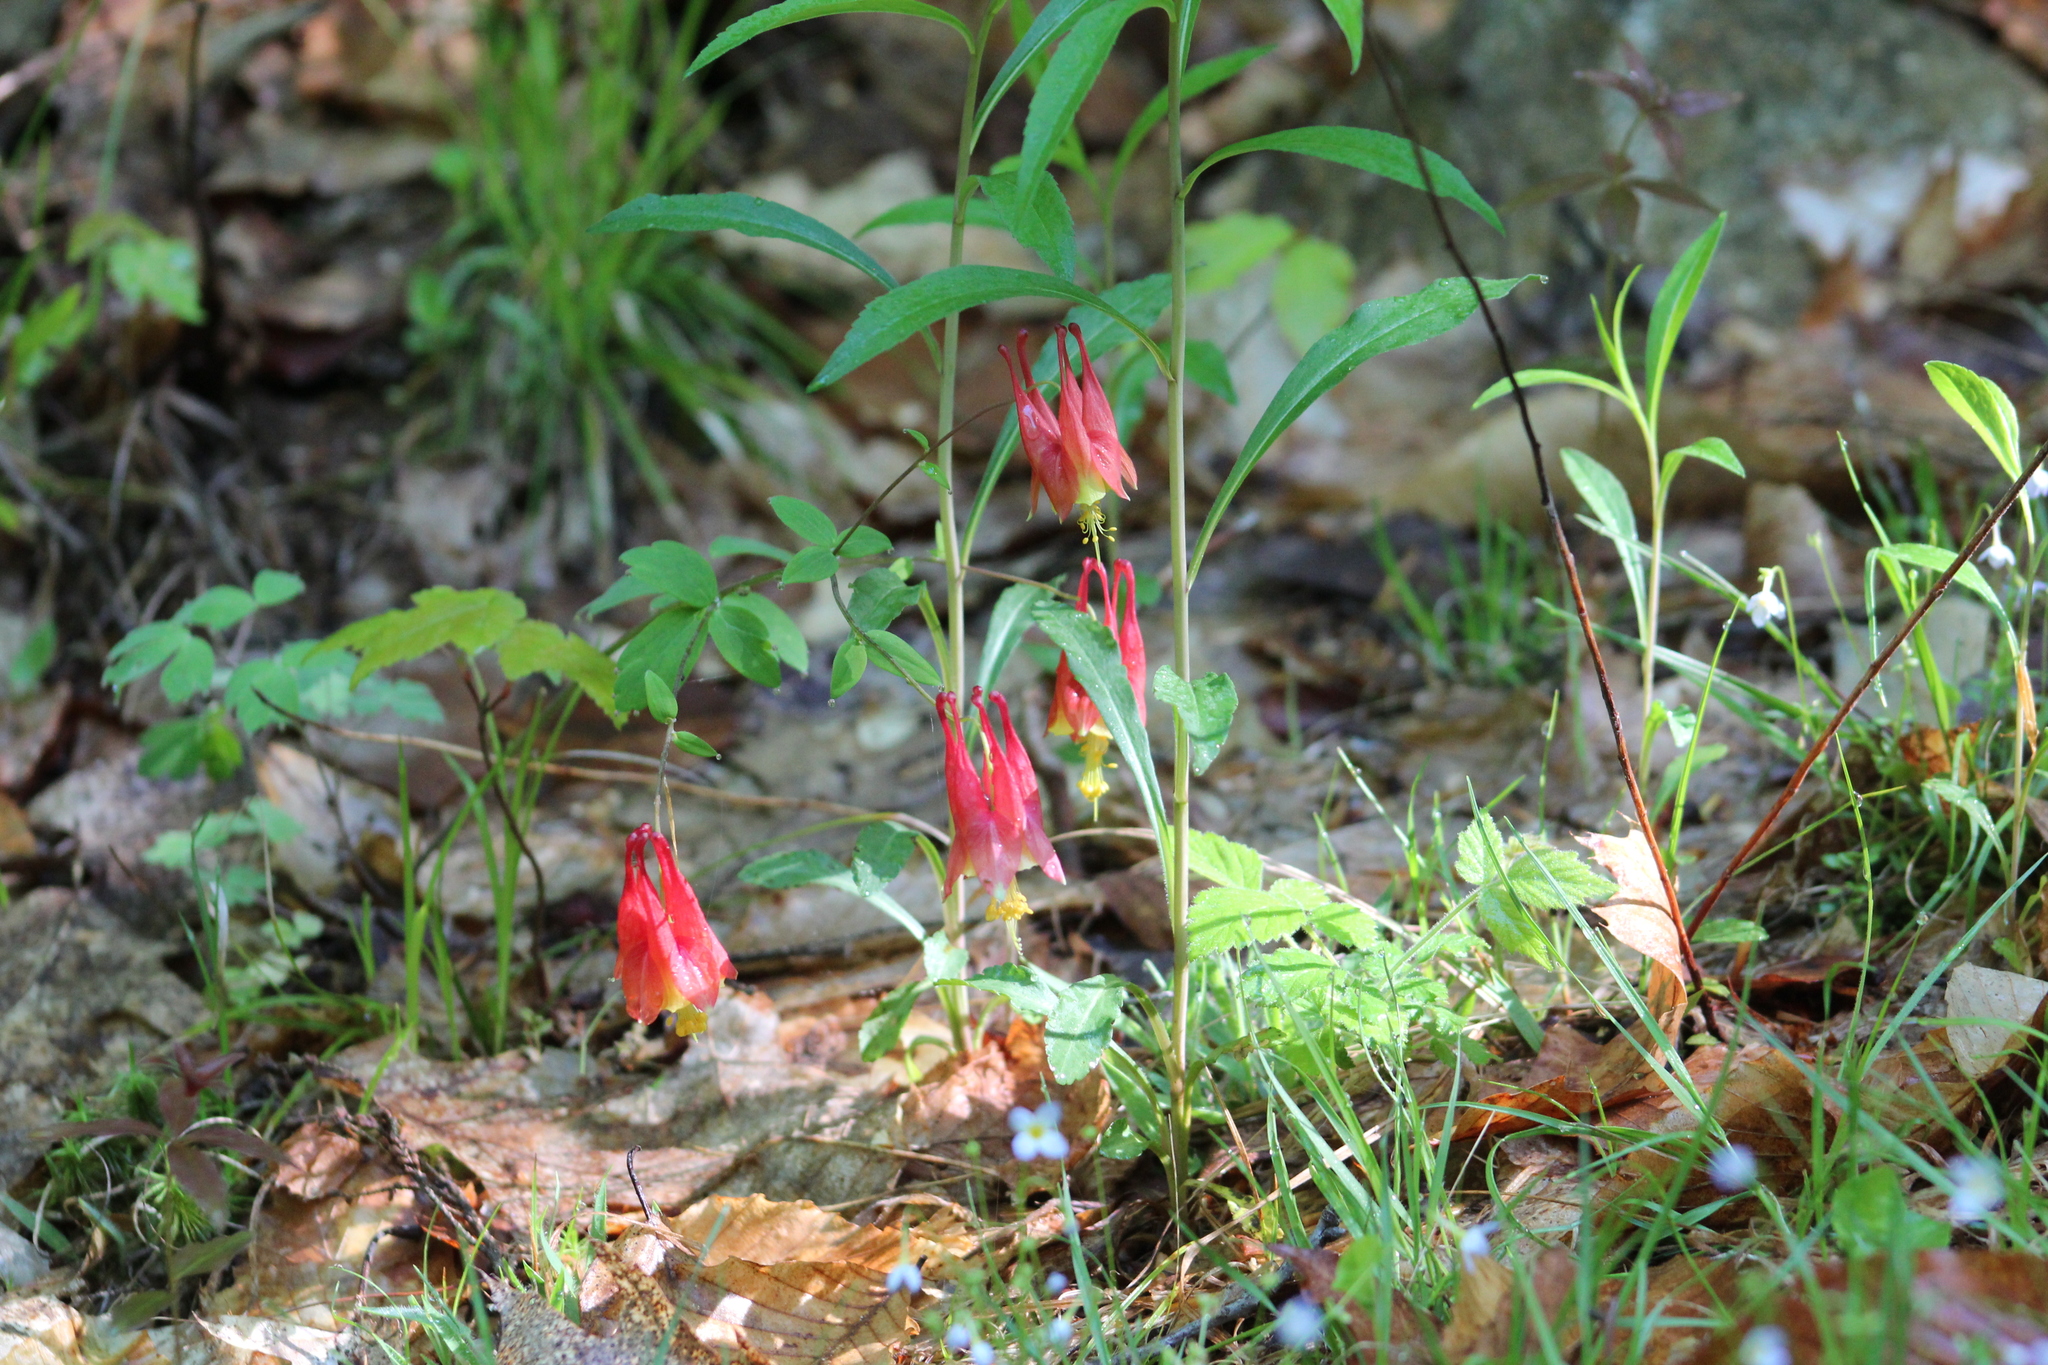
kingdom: Plantae
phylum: Tracheophyta
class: Magnoliopsida
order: Ranunculales
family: Ranunculaceae
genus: Aquilegia
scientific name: Aquilegia canadensis
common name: American columbine
